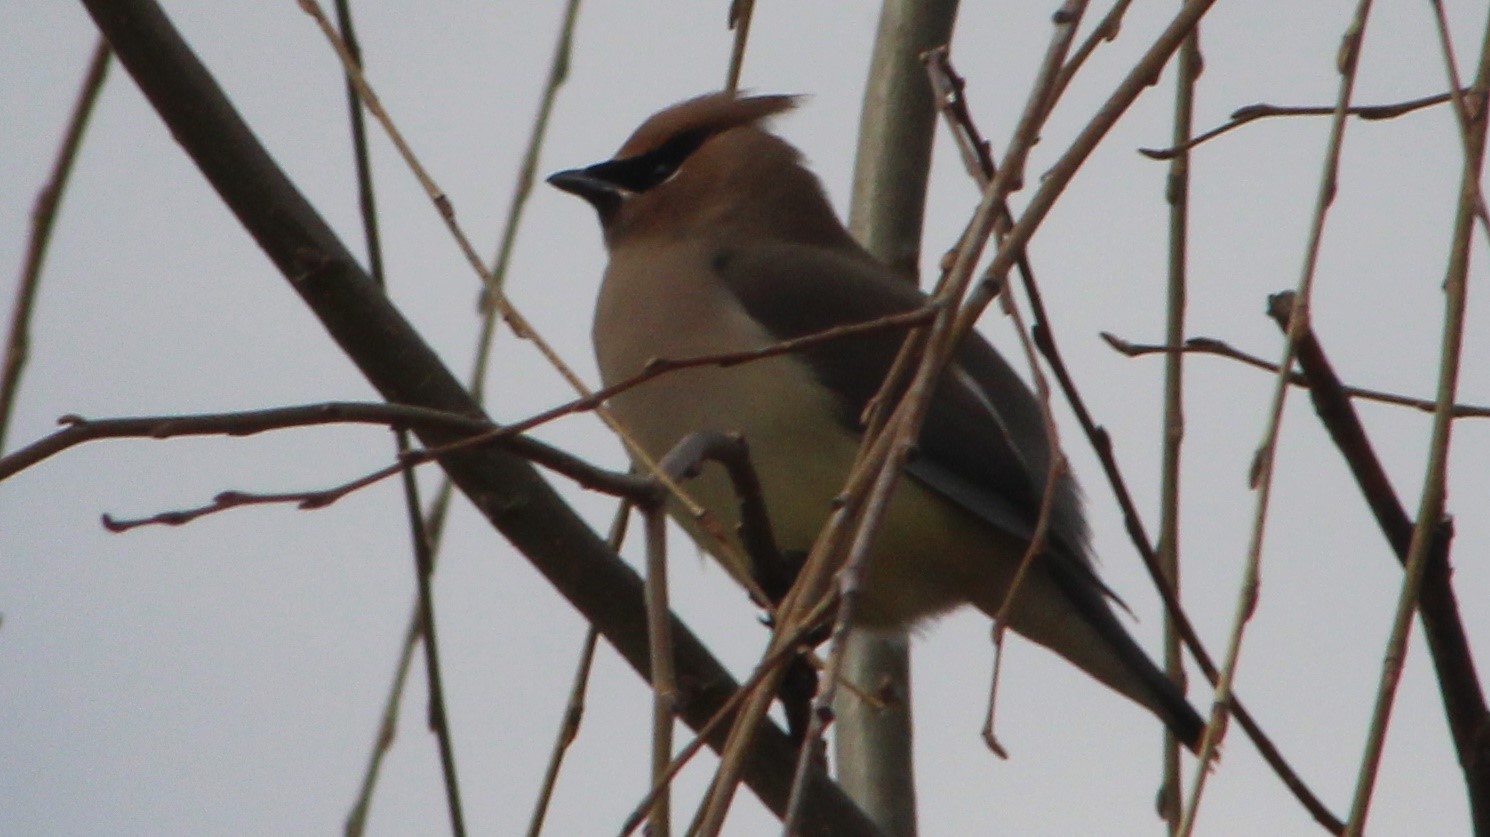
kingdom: Animalia
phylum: Chordata
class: Aves
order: Passeriformes
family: Bombycillidae
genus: Bombycilla
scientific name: Bombycilla cedrorum
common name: Cedar waxwing
